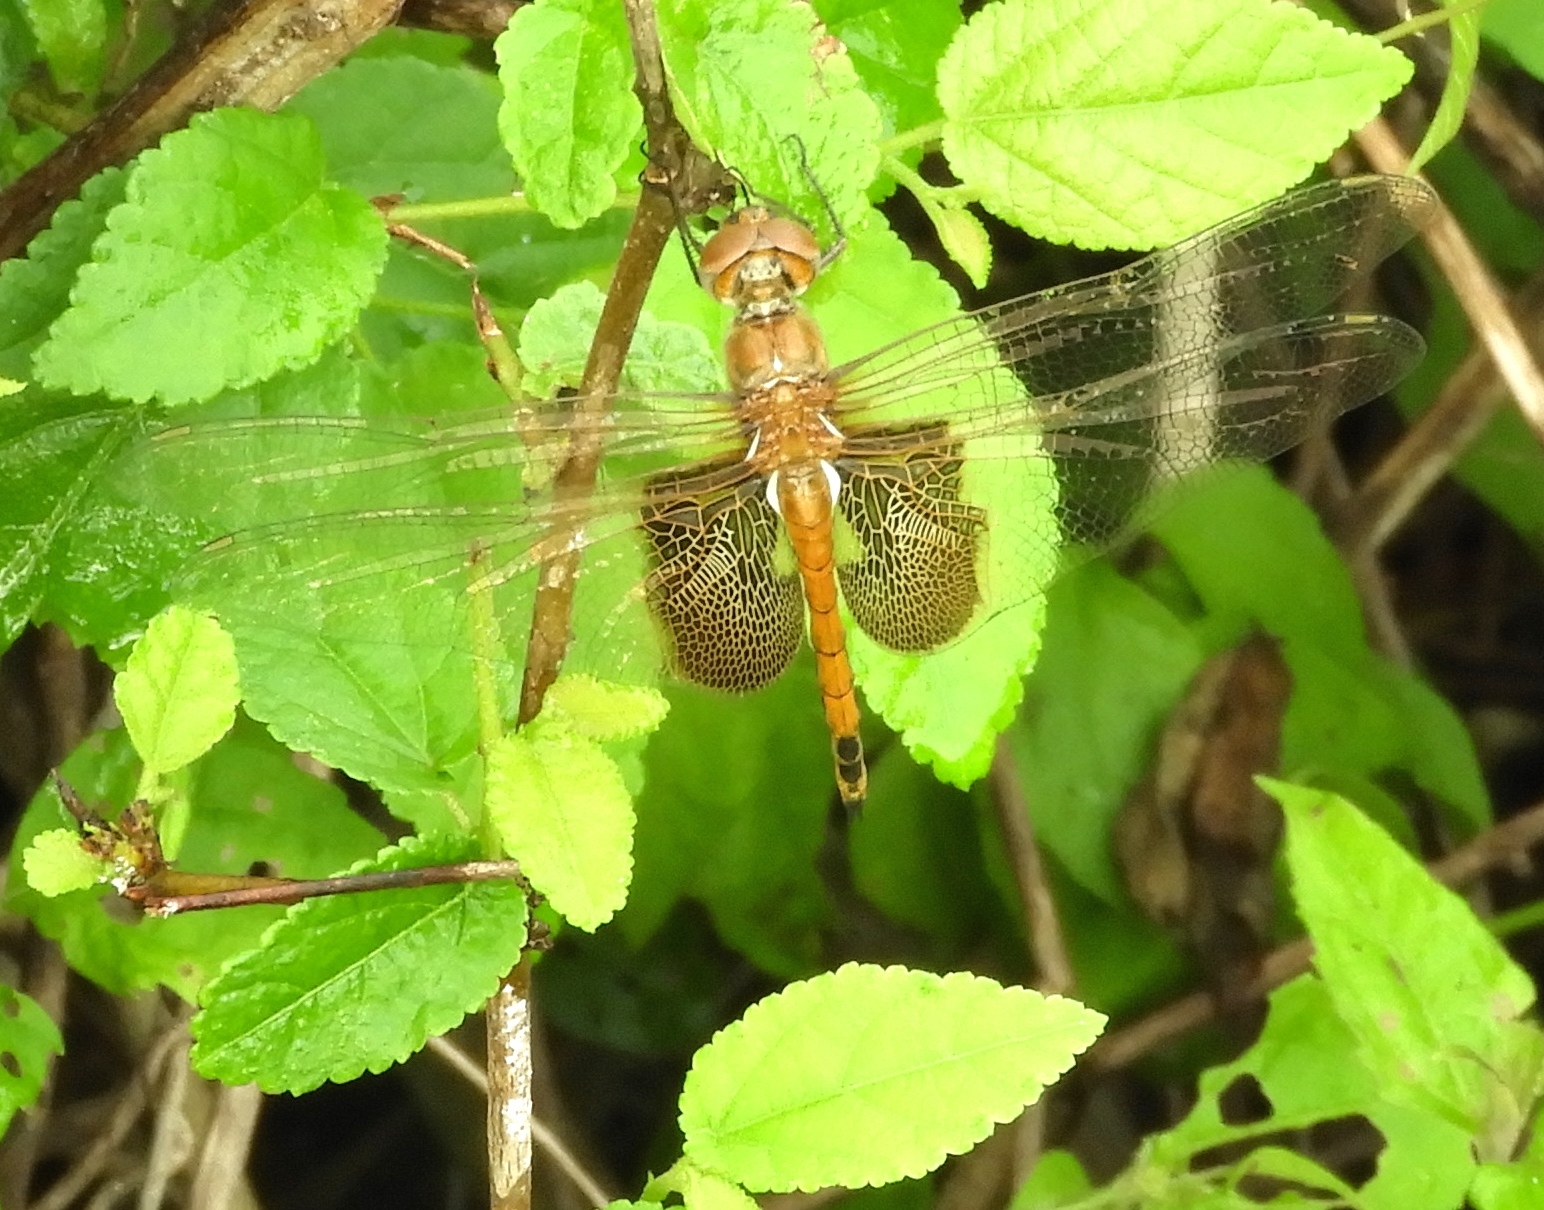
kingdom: Animalia
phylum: Arthropoda
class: Insecta
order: Odonata
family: Libellulidae
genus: Tramea
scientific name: Tramea onusta
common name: Red saddlebags
